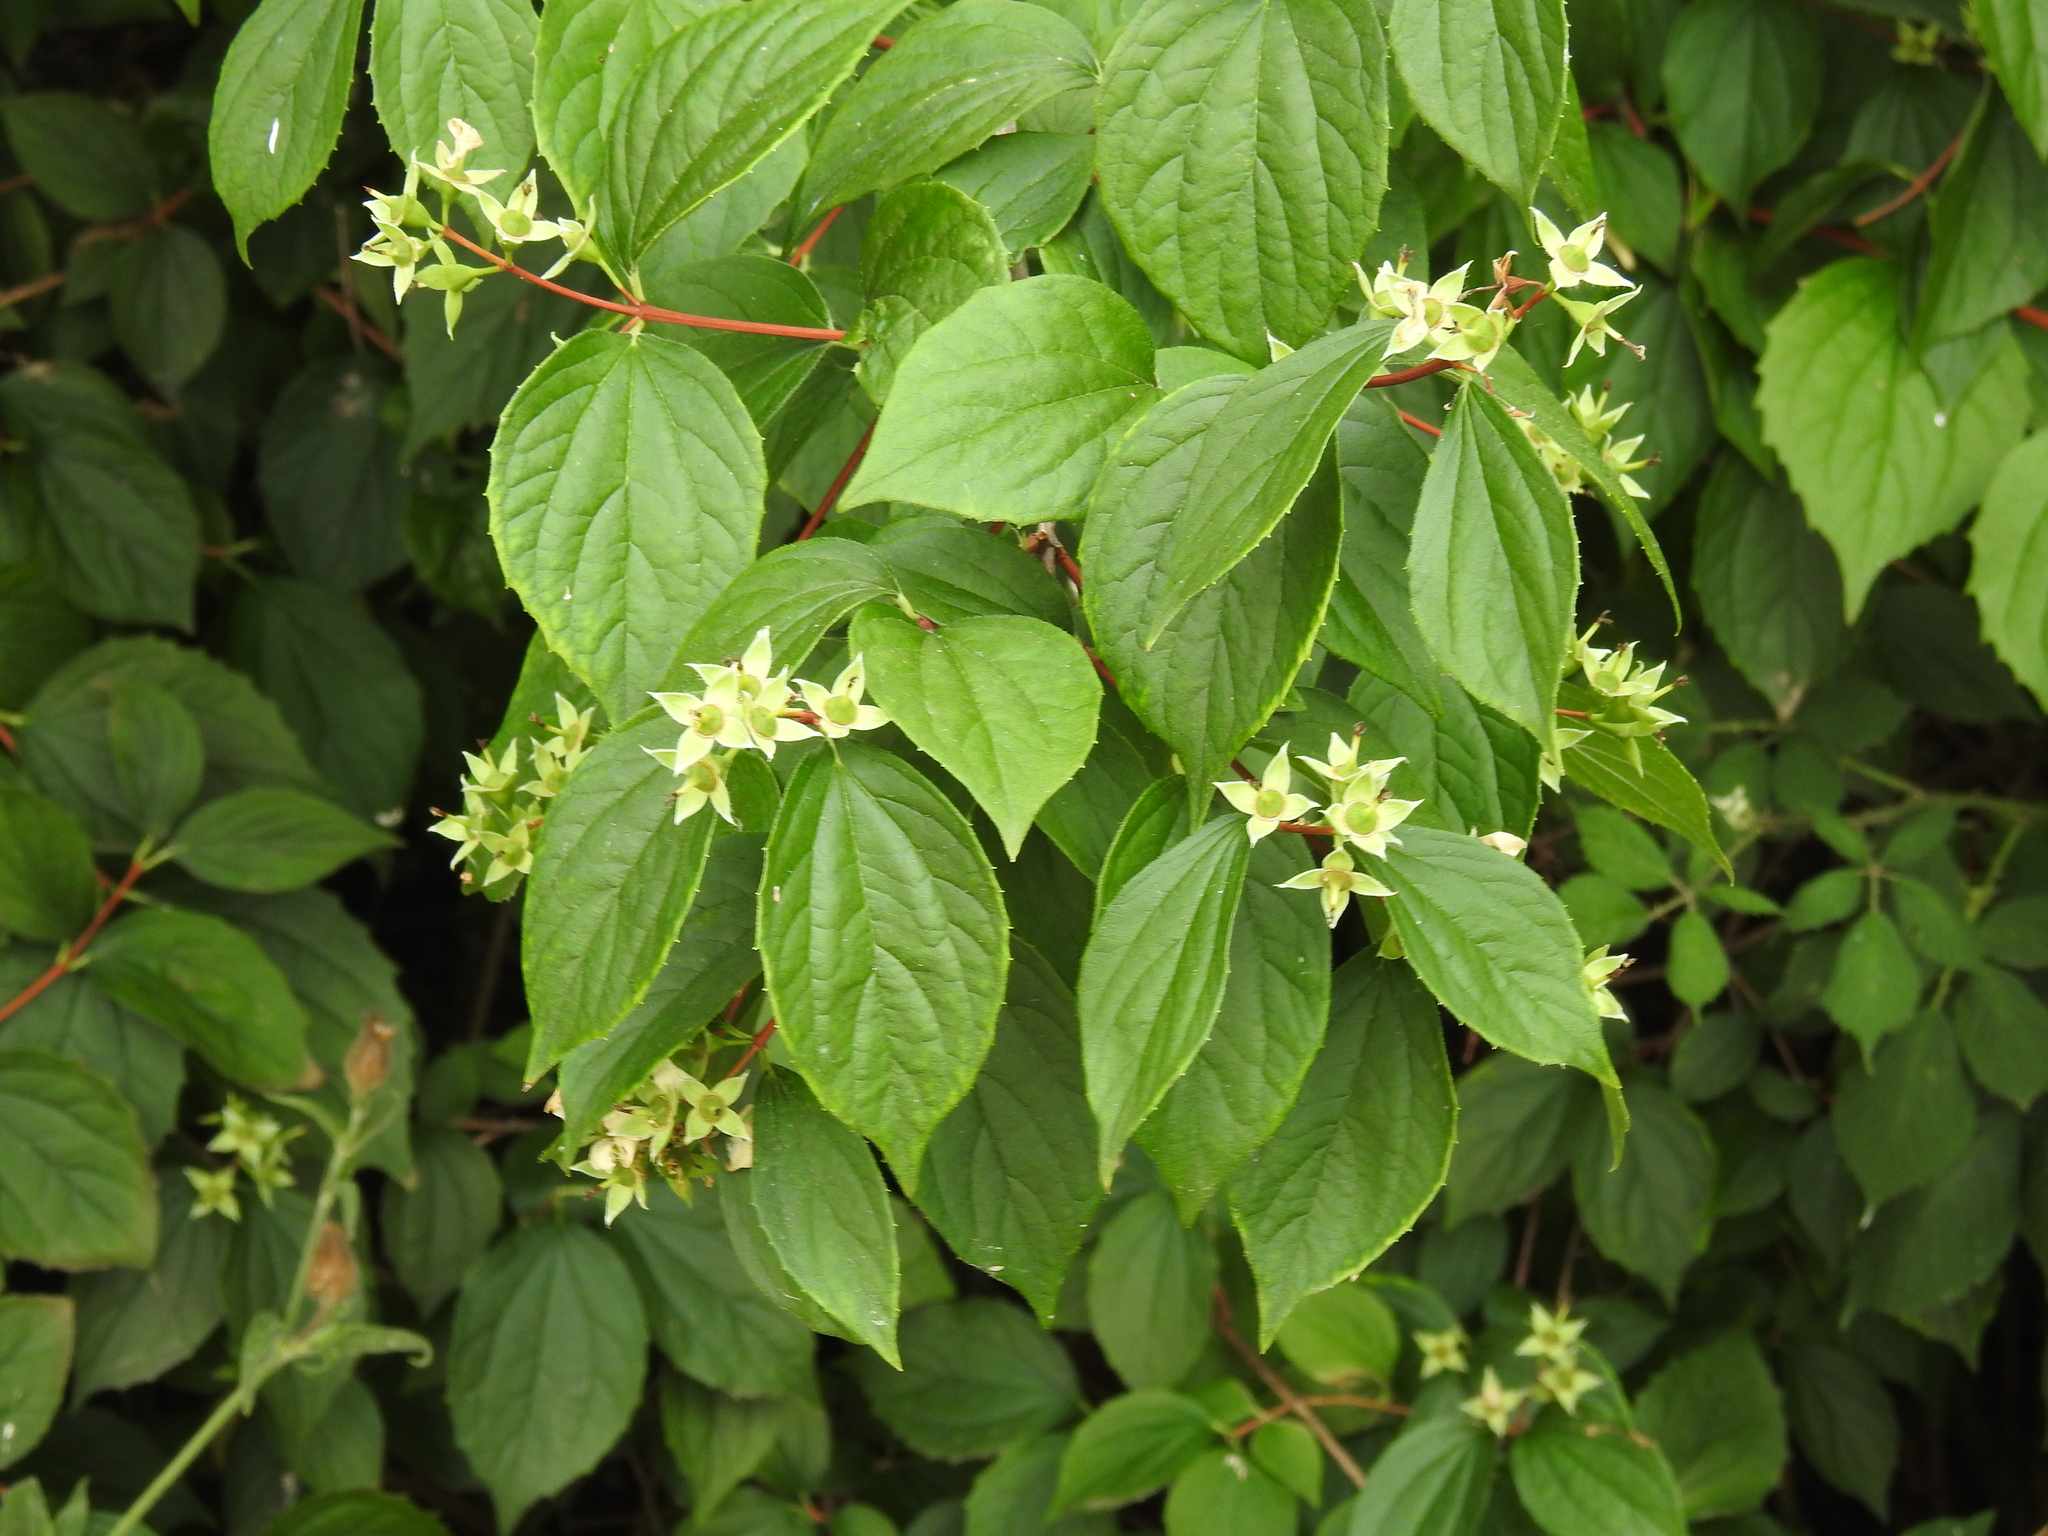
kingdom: Plantae
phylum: Tracheophyta
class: Magnoliopsida
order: Cornales
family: Hydrangeaceae
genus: Philadelphus
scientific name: Philadelphus coronarius
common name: Mock orange
